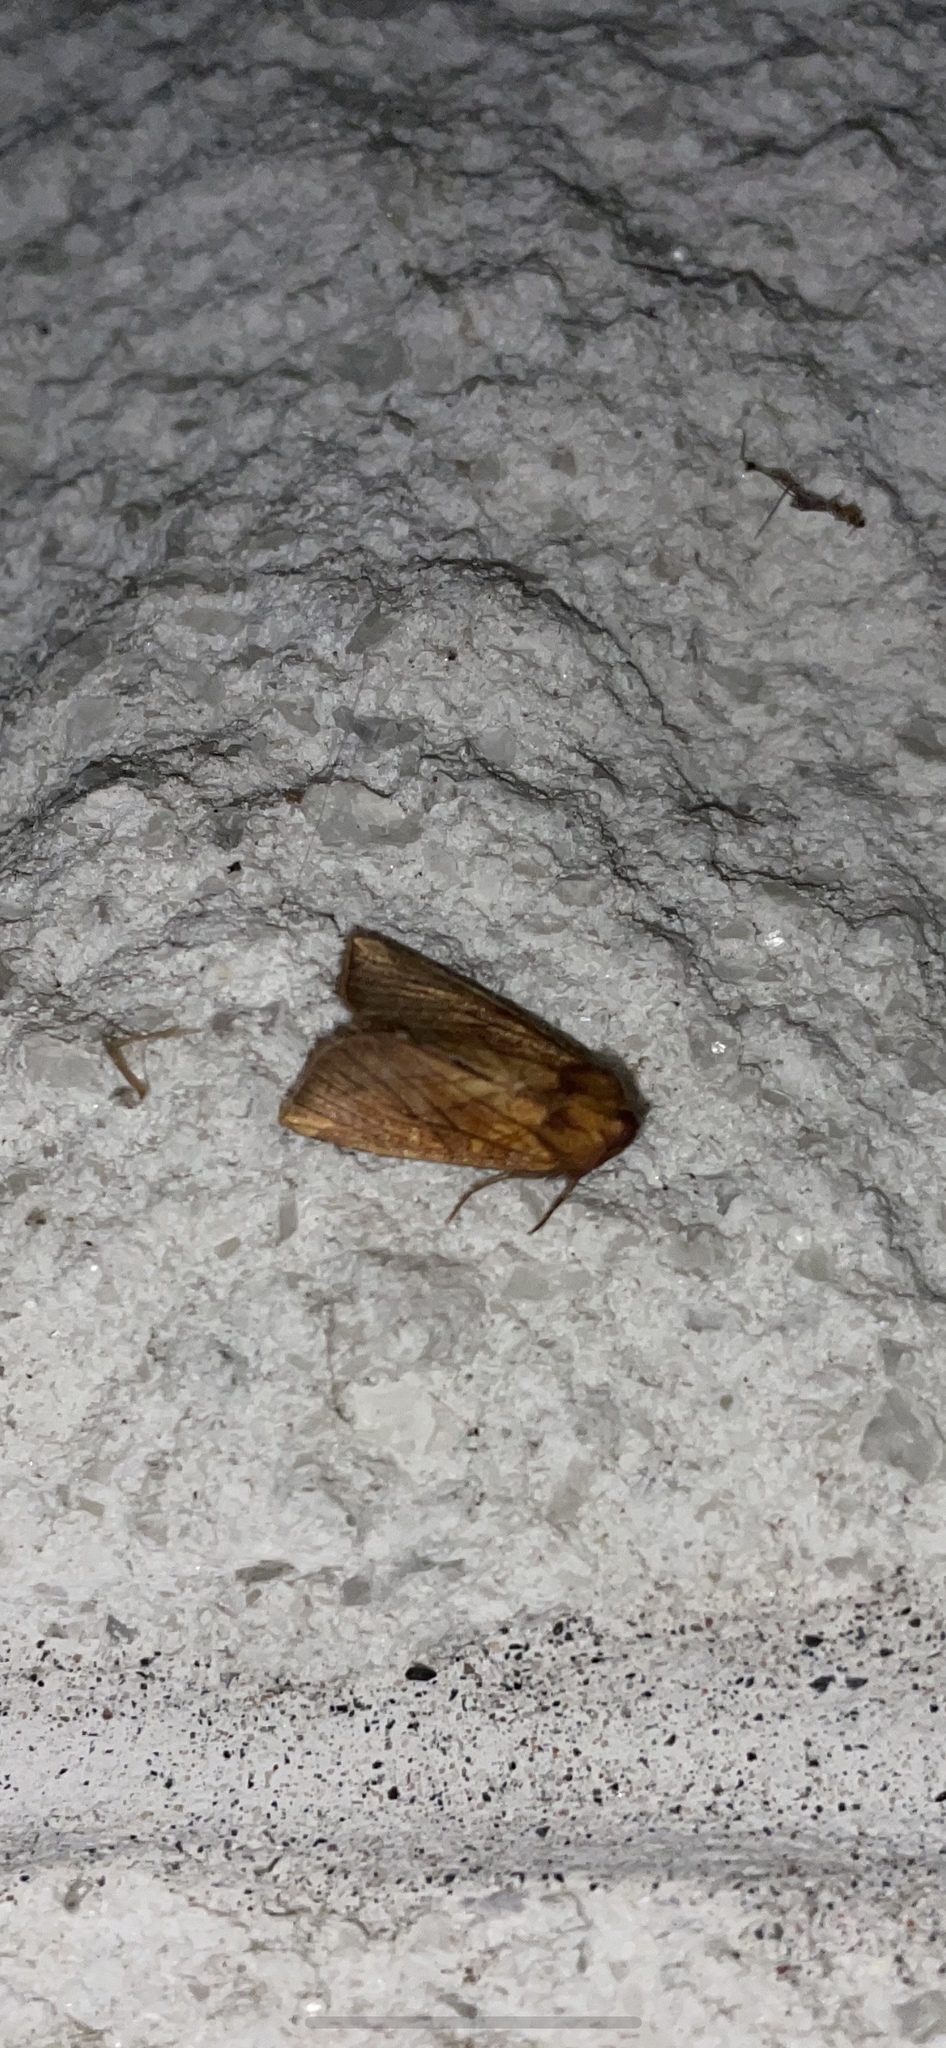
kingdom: Animalia
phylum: Arthropoda
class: Insecta
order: Lepidoptera
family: Noctuidae
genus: Papaipema
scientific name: Papaipema inquaesita
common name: Sensitive fern borer moth
